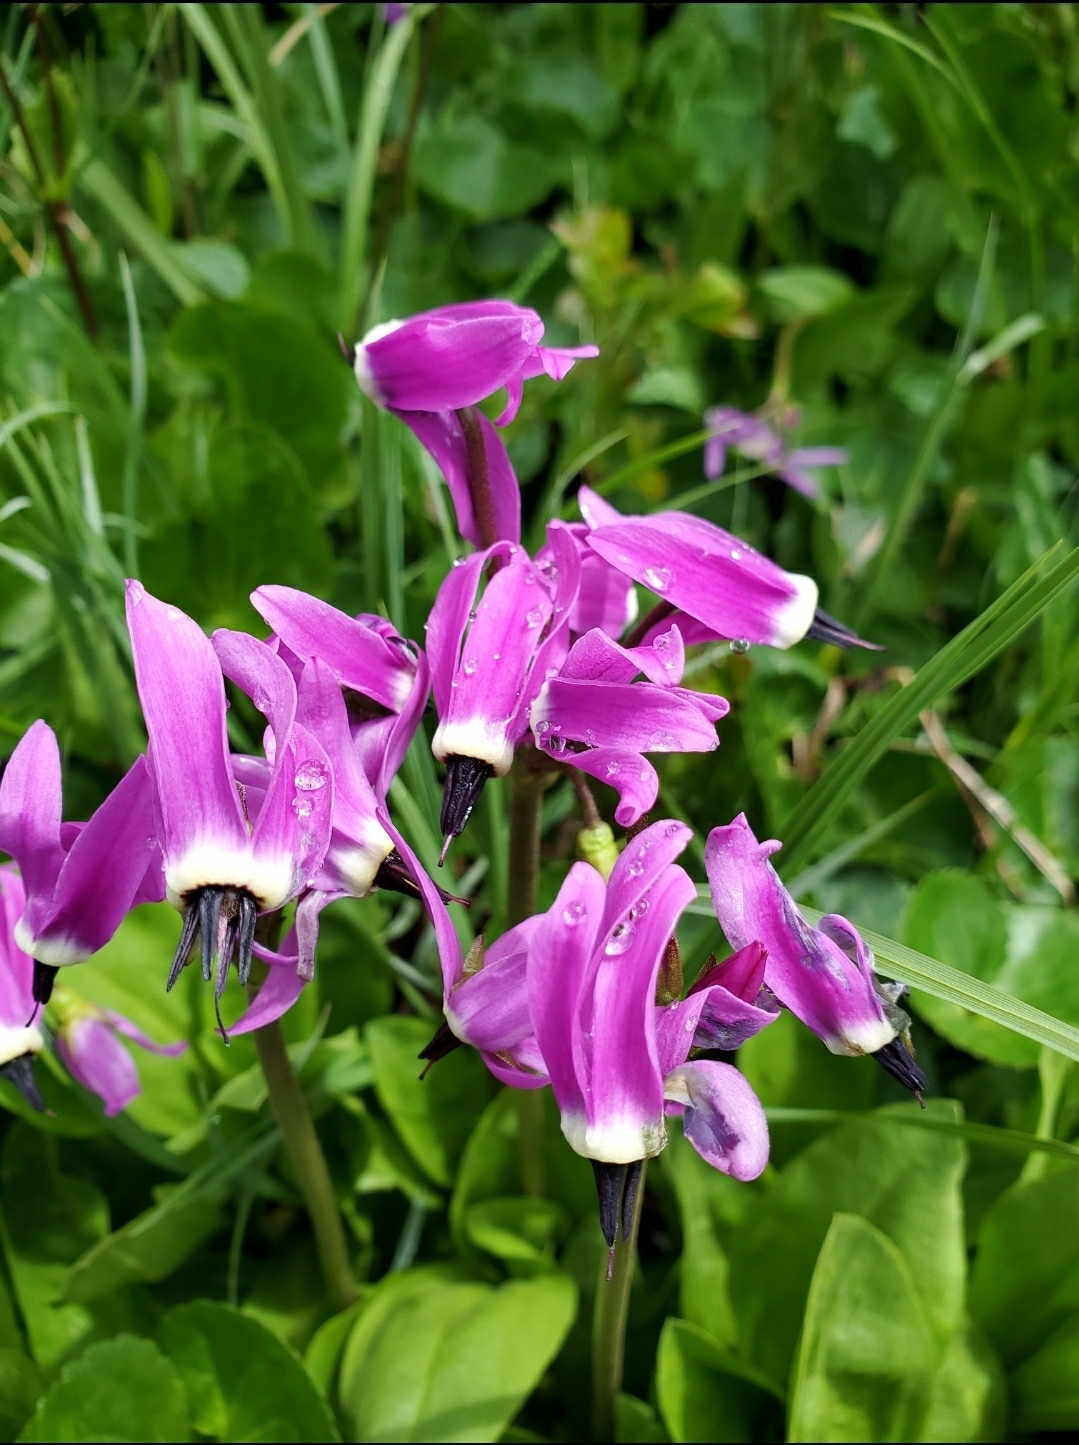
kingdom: Plantae
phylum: Tracheophyta
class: Magnoliopsida
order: Ericales
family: Primulaceae
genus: Dodecatheon
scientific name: Dodecatheon jeffreyanum
